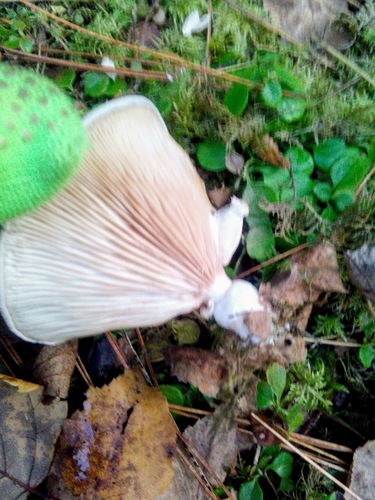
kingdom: Fungi
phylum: Basidiomycota
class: Agaricomycetes
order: Agaricales
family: Entolomataceae
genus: Clitopilus
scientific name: Clitopilus prunulus
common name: The miller
